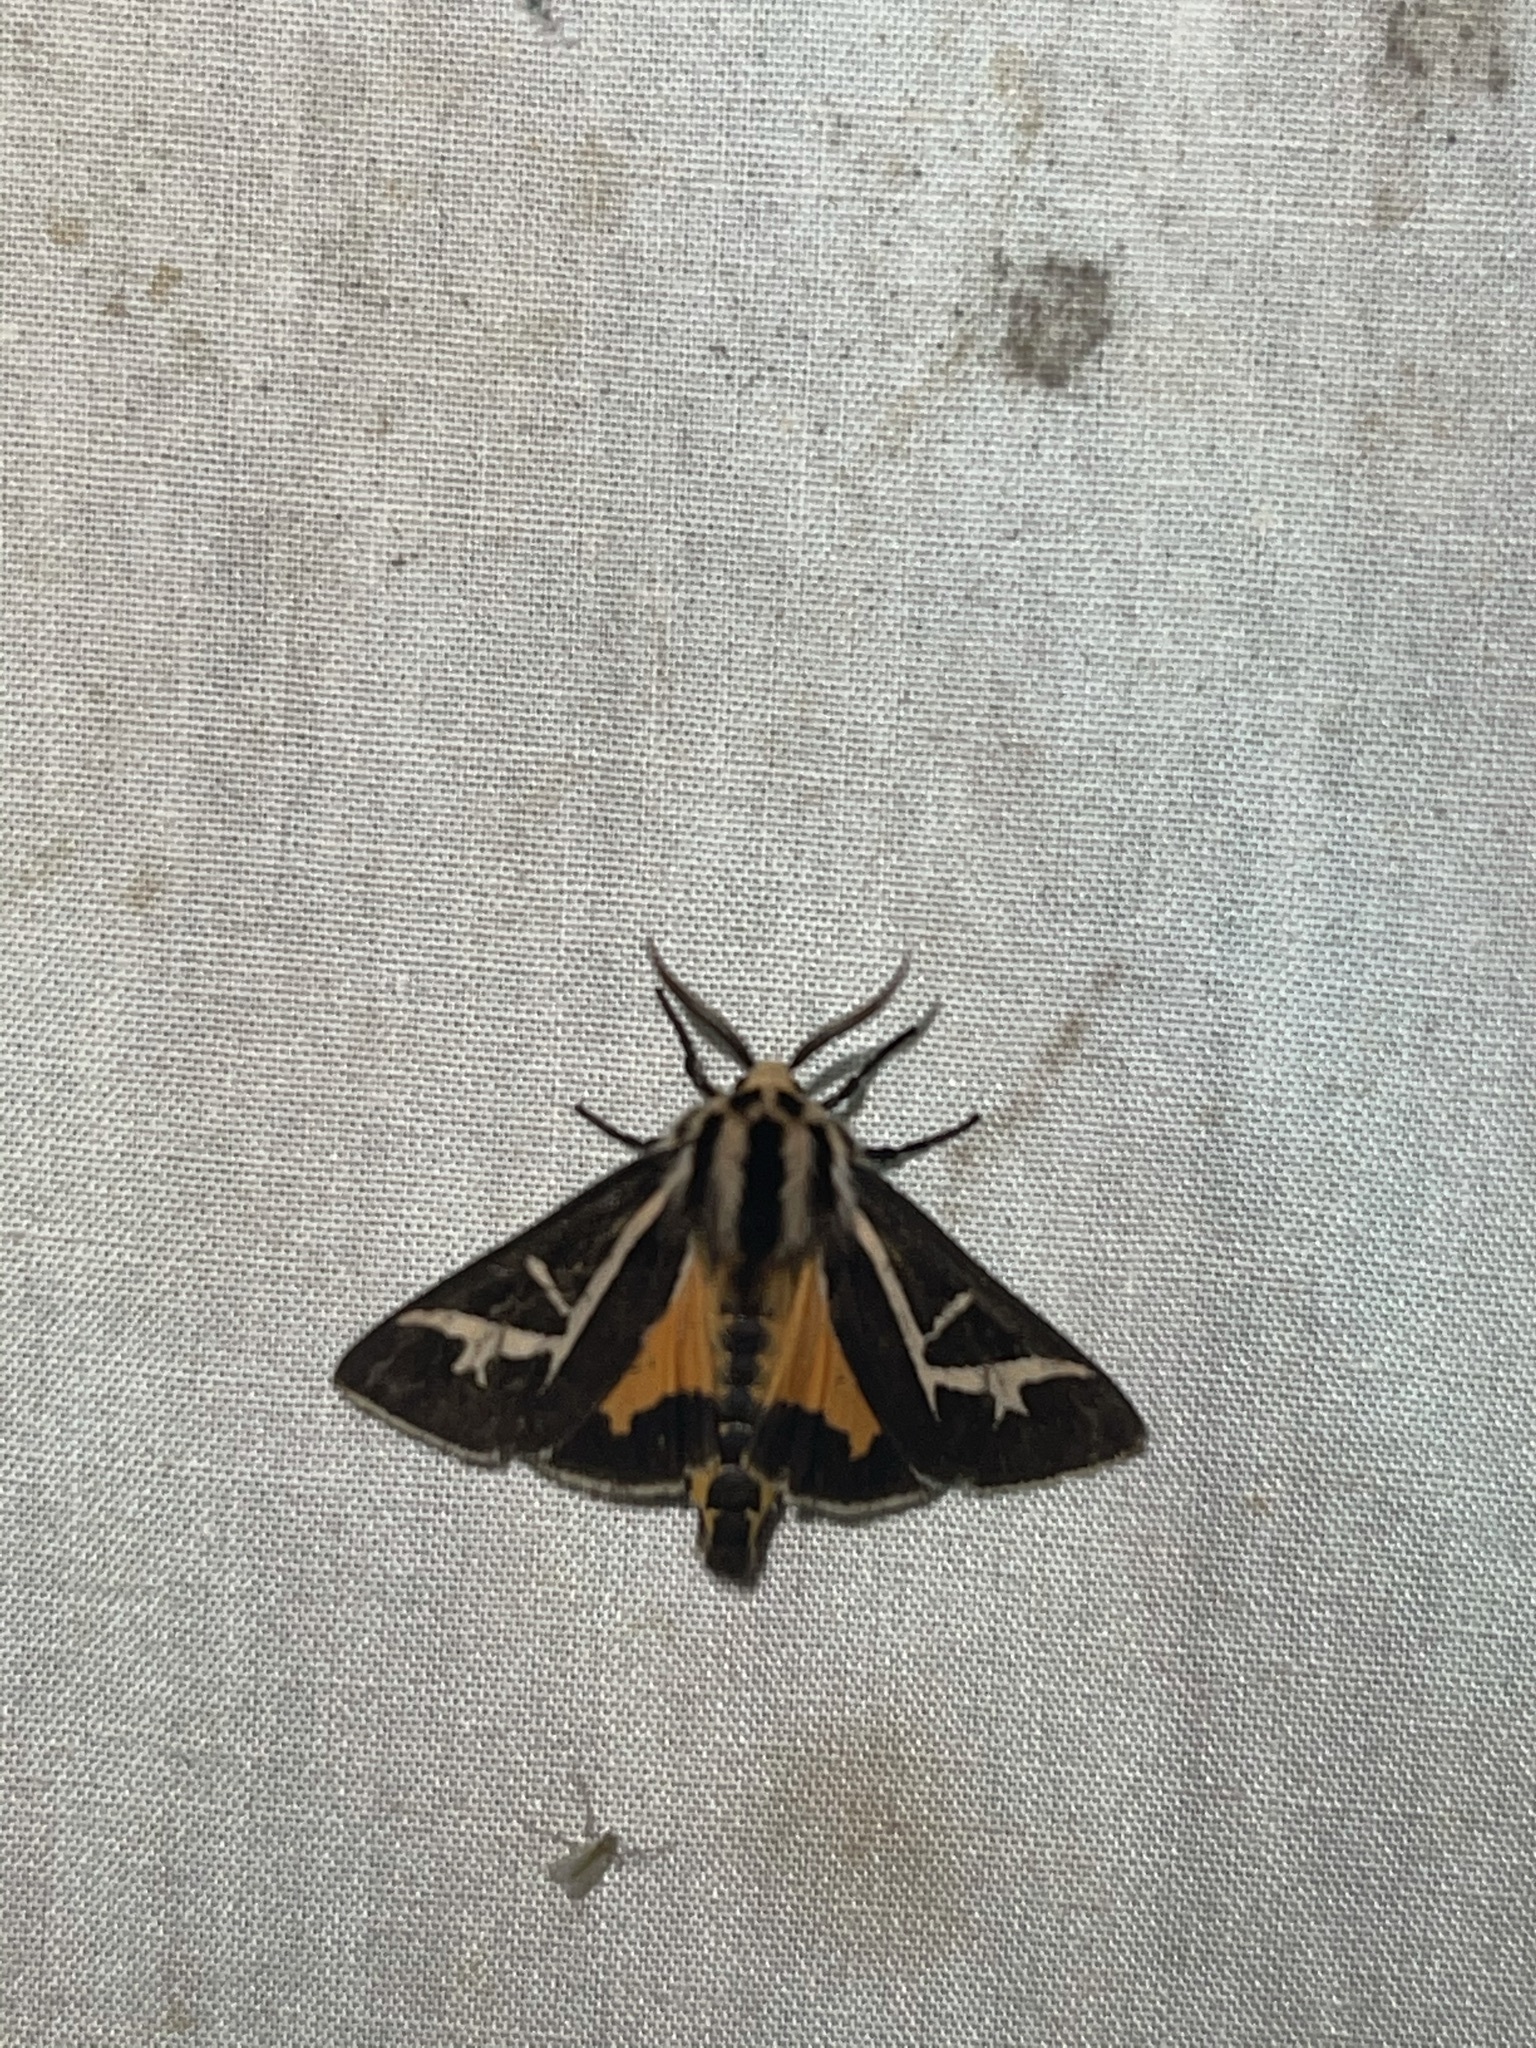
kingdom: Animalia
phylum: Arthropoda
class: Insecta
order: Lepidoptera
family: Erebidae
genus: Apantesis
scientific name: Apantesis
